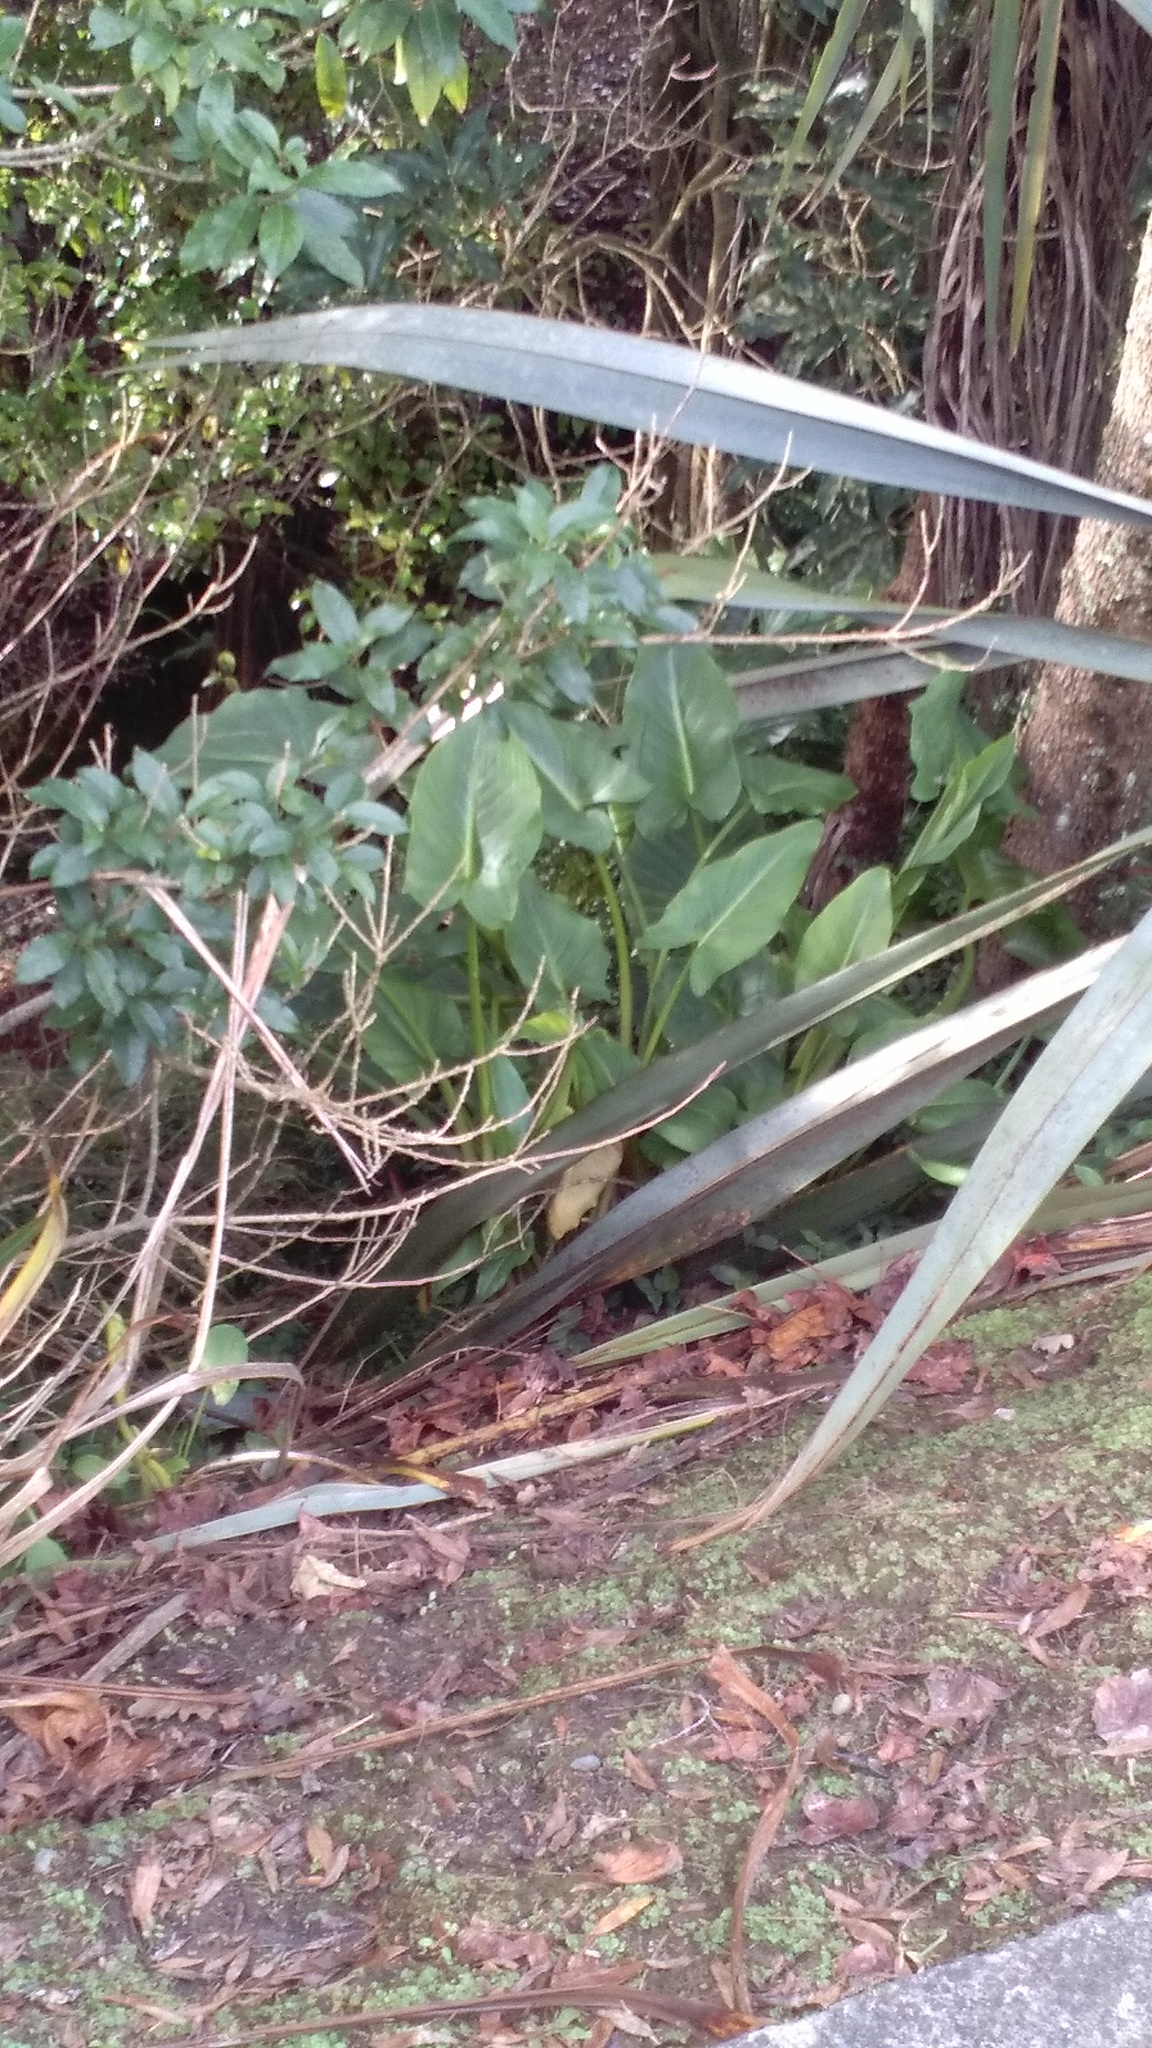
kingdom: Plantae
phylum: Tracheophyta
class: Liliopsida
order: Alismatales
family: Araceae
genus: Zantedeschia
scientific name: Zantedeschia aethiopica
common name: Altar-lily
